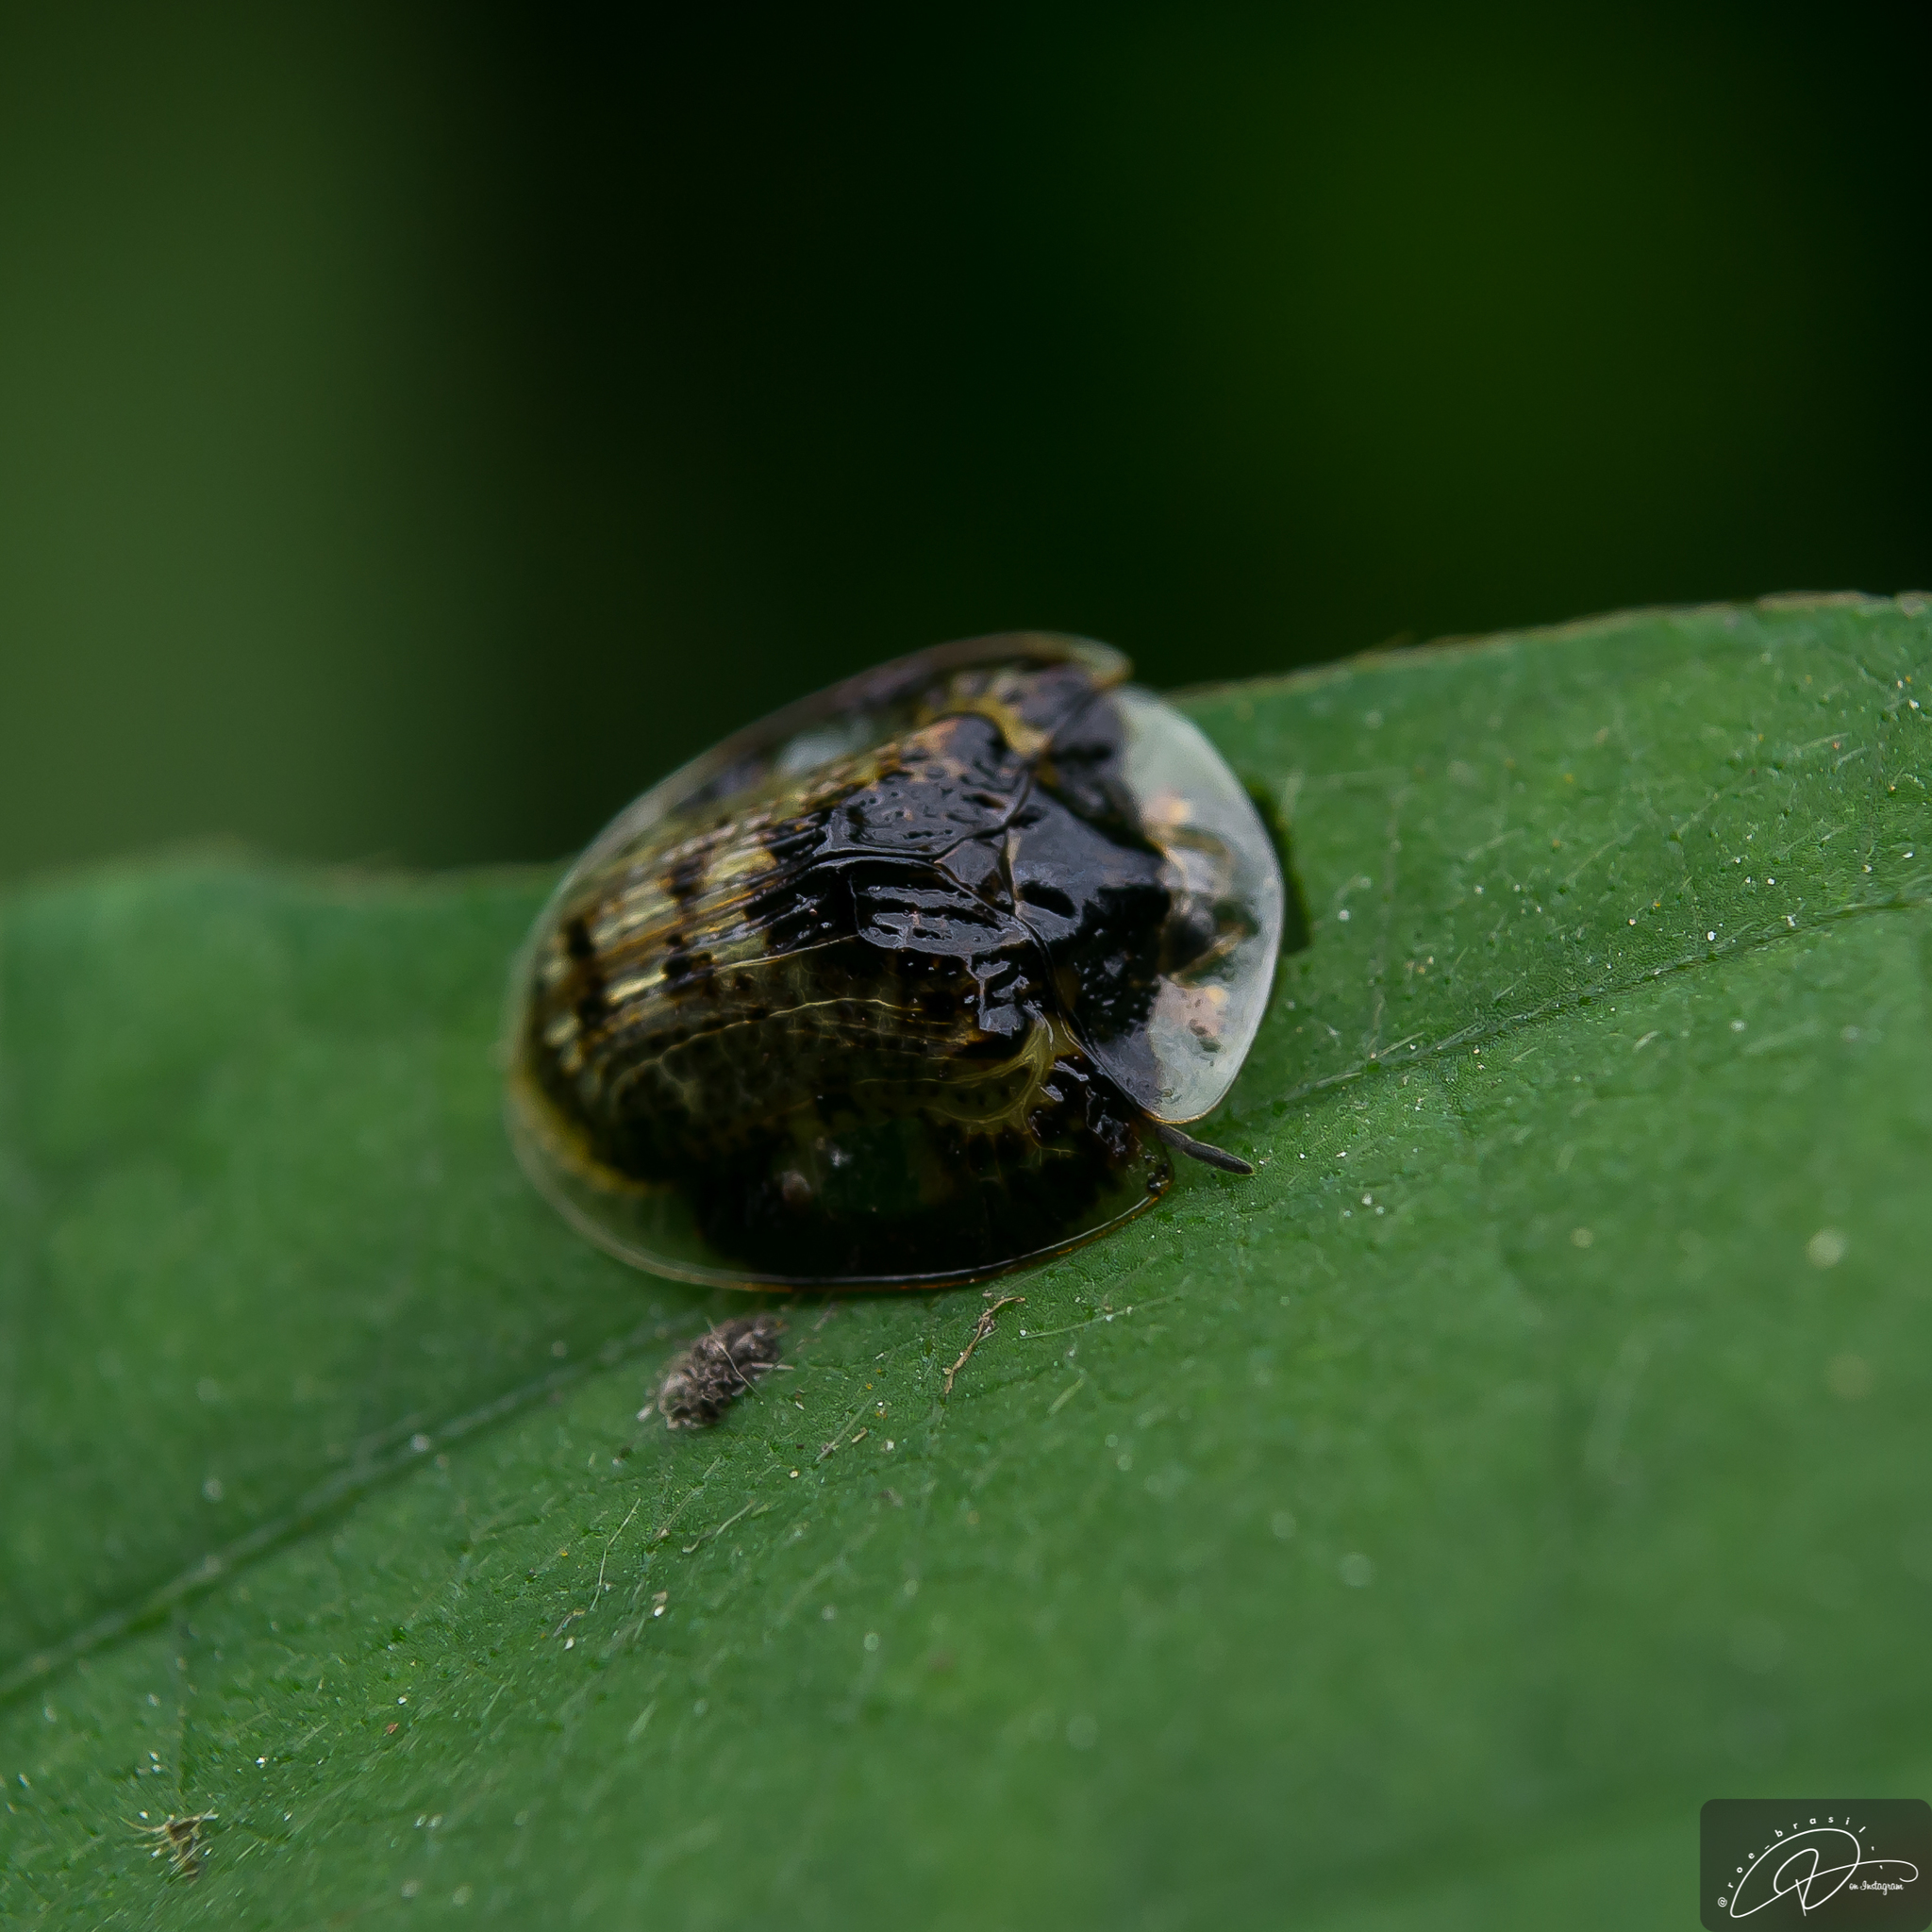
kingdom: Animalia
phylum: Arthropoda
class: Insecta
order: Coleoptera
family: Chrysomelidae
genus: Microctenochira
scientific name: Microctenochira optata
